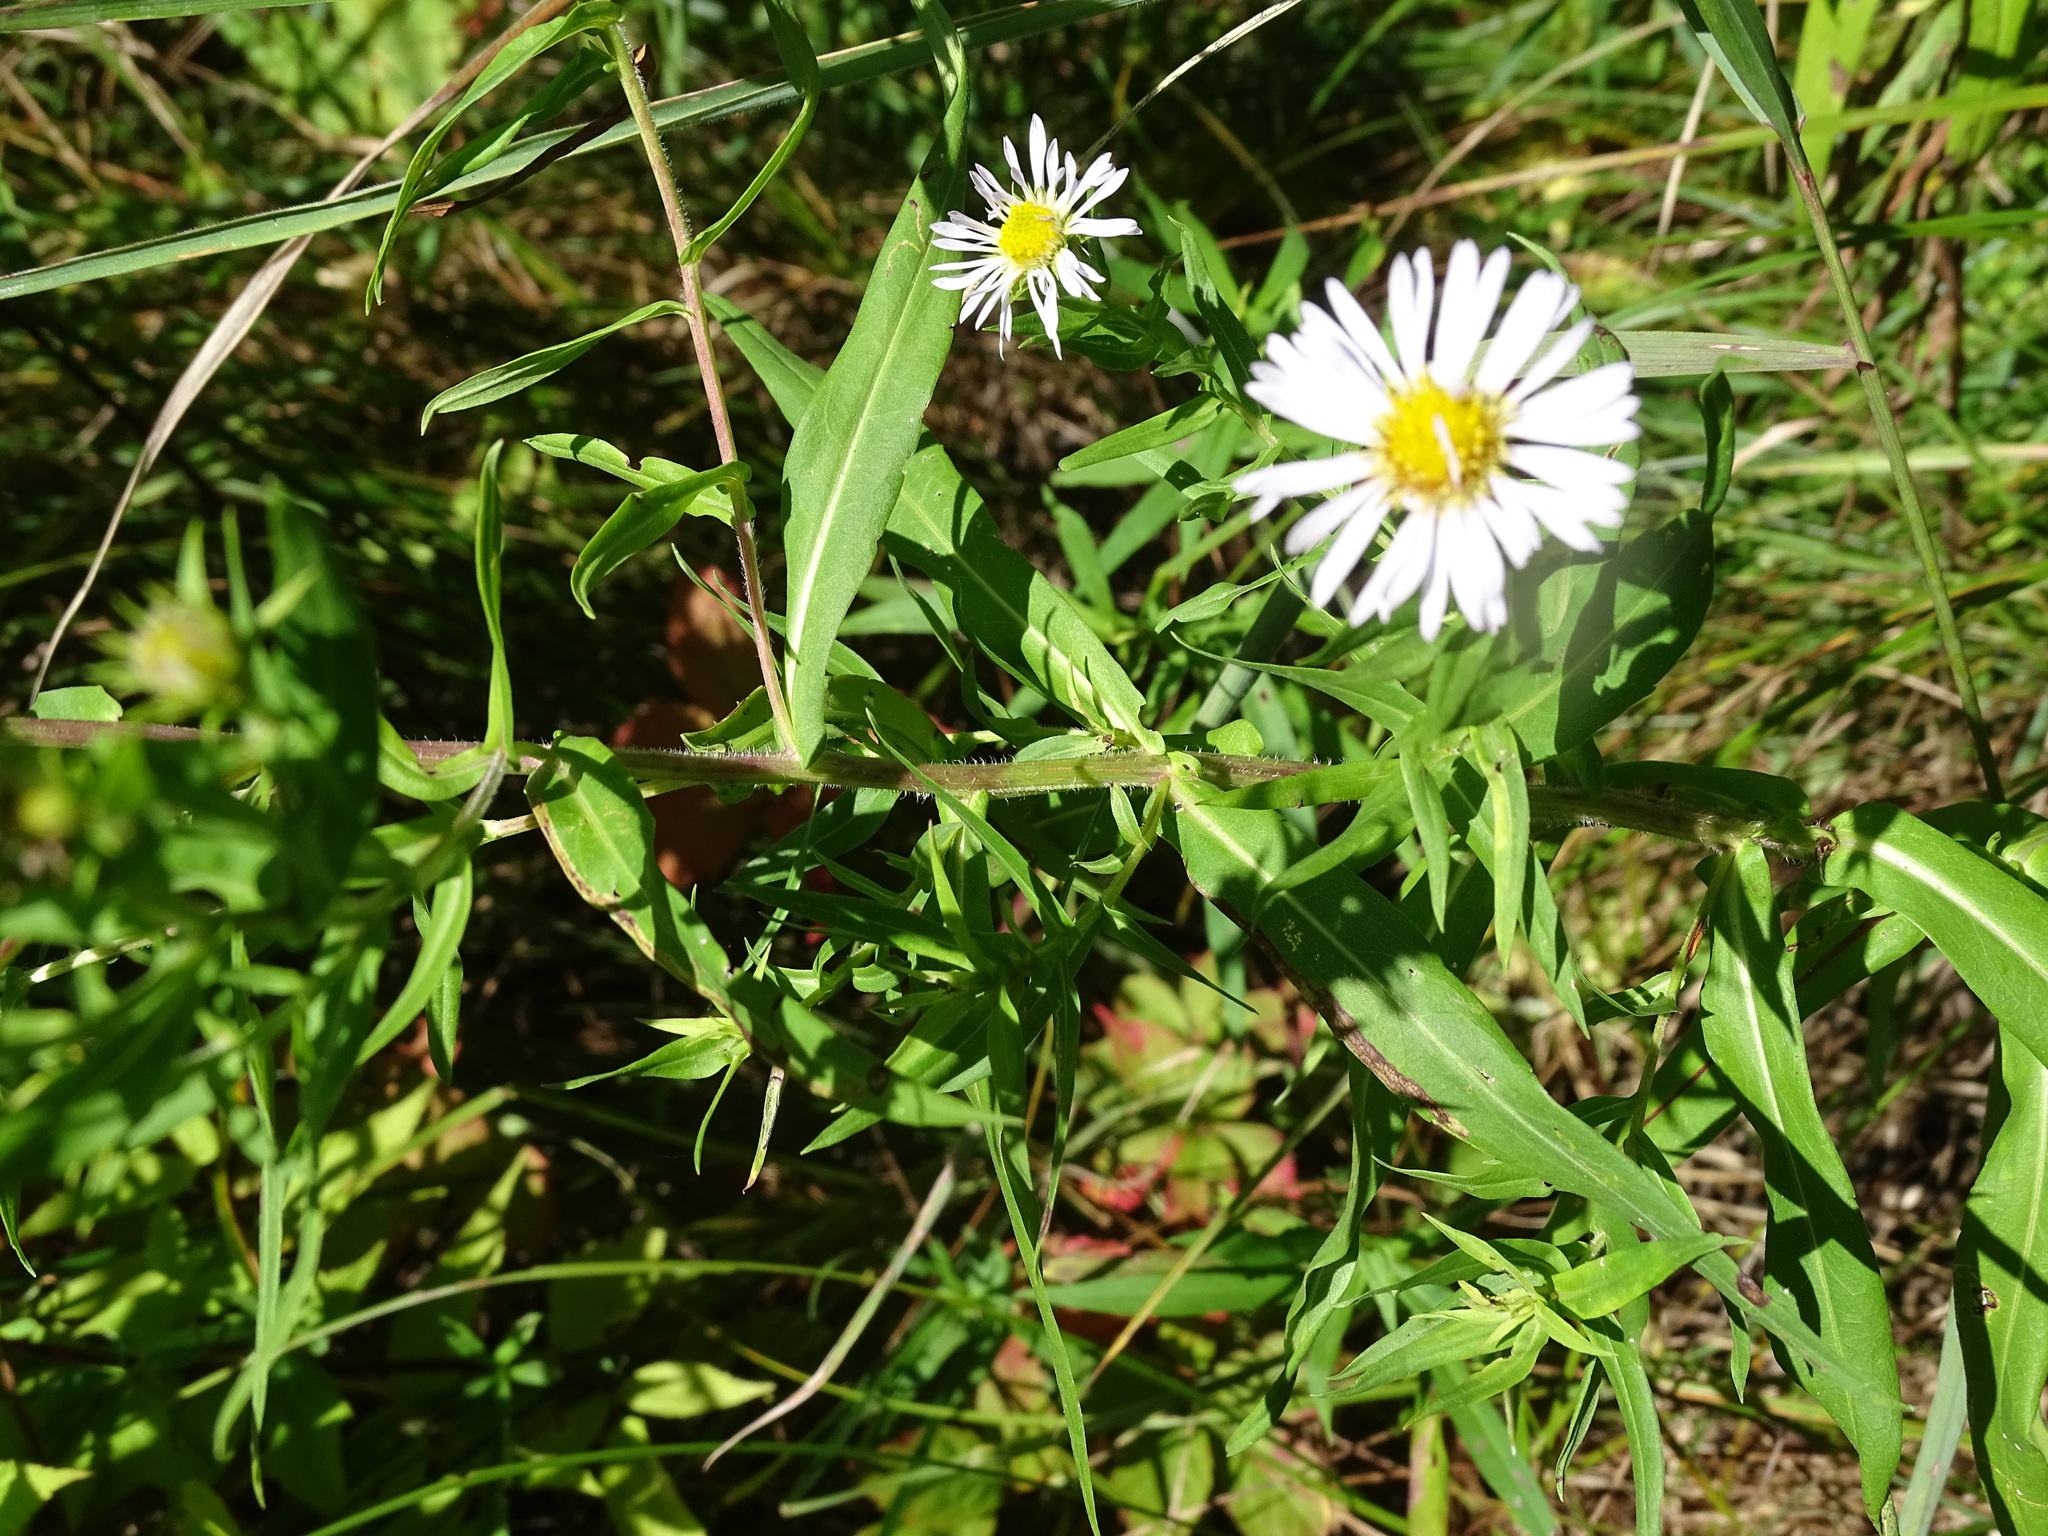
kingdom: Plantae
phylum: Tracheophyta
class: Magnoliopsida
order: Asterales
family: Asteraceae
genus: Symphyotrichum
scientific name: Symphyotrichum firmum
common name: Shining aster
